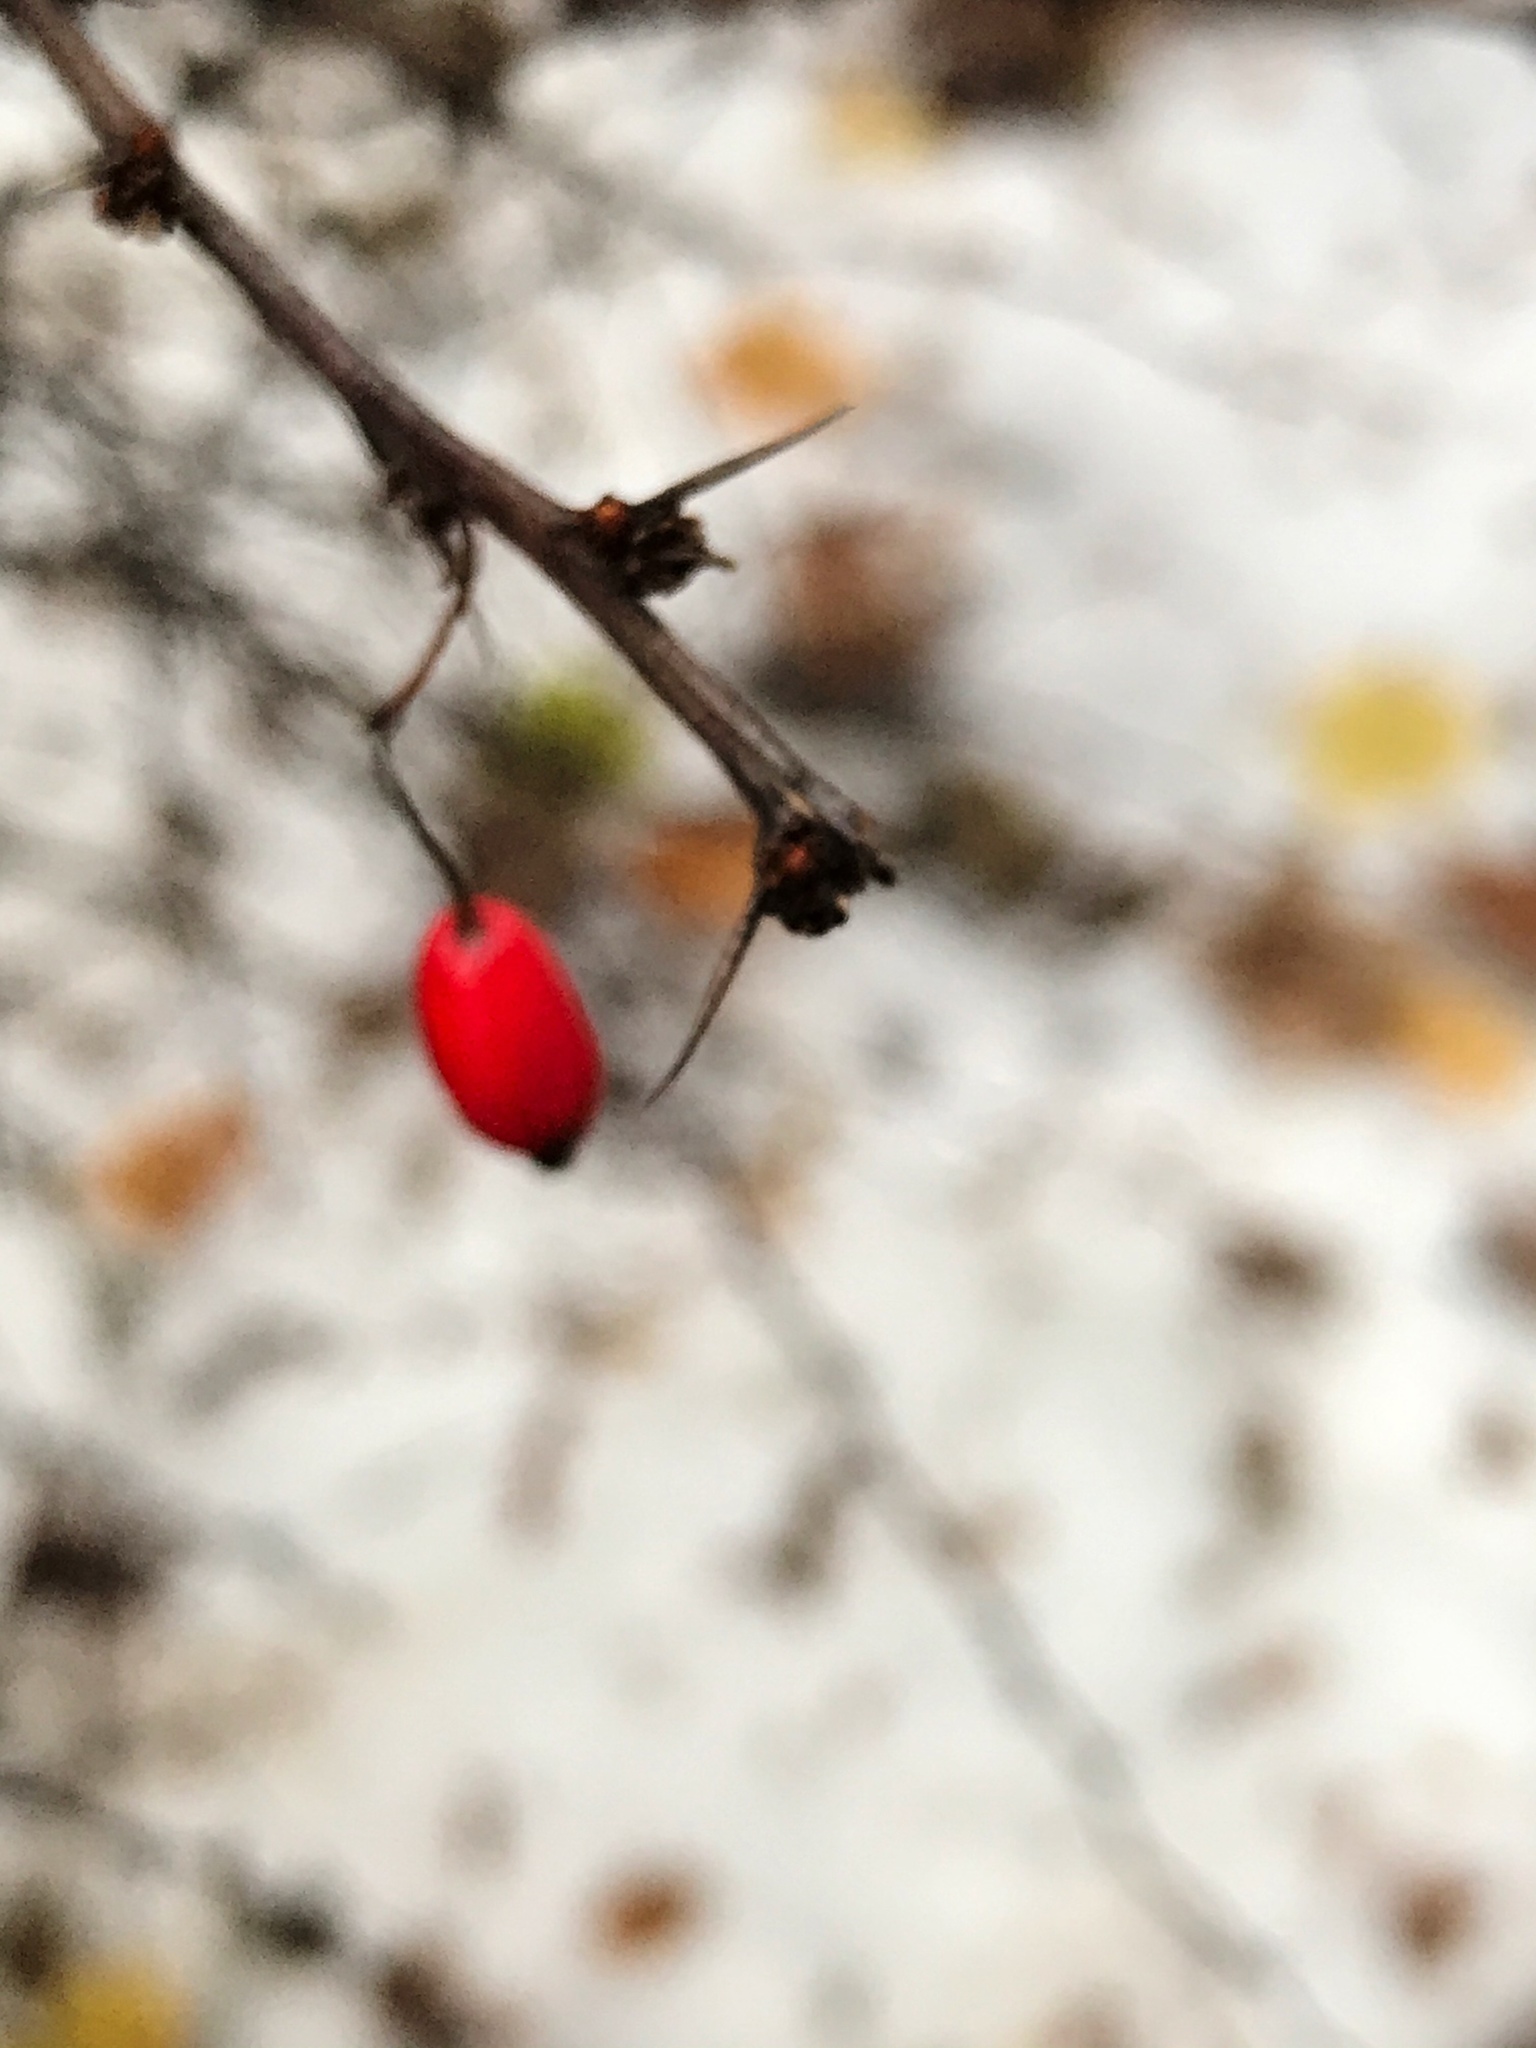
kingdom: Plantae
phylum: Tracheophyta
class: Magnoliopsida
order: Ranunculales
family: Berberidaceae
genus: Berberis
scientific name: Berberis thunbergii
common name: Japanese barberry
